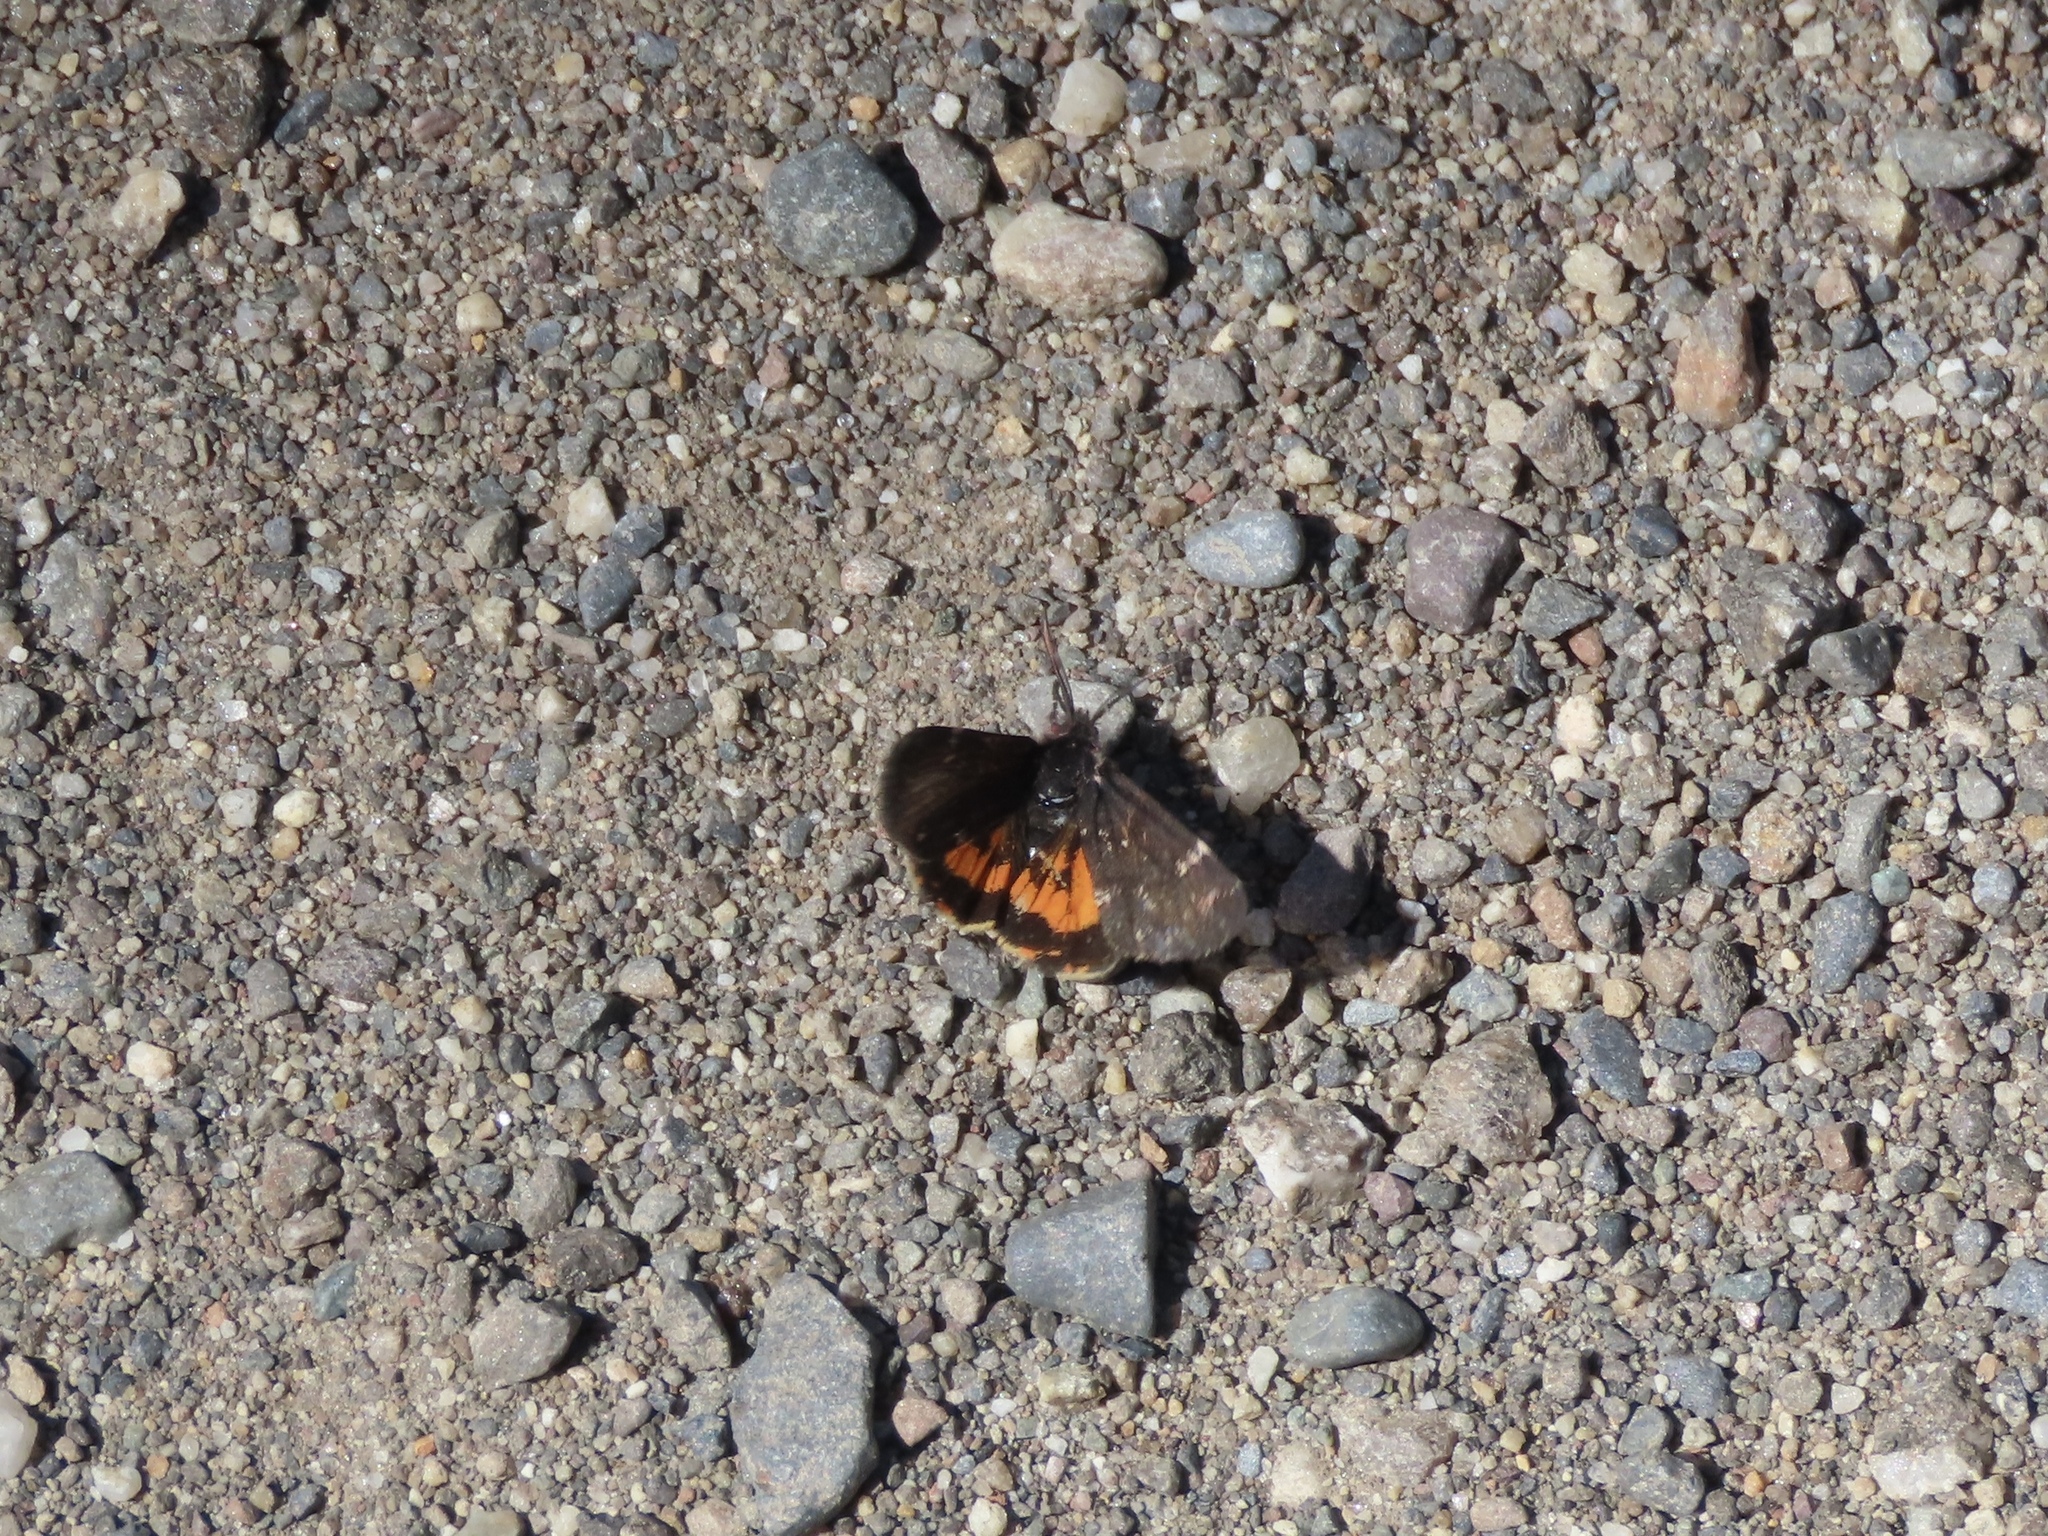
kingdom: Animalia
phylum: Arthropoda
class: Insecta
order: Lepidoptera
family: Erebidae
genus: Leptarctia
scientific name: Leptarctia californiae
